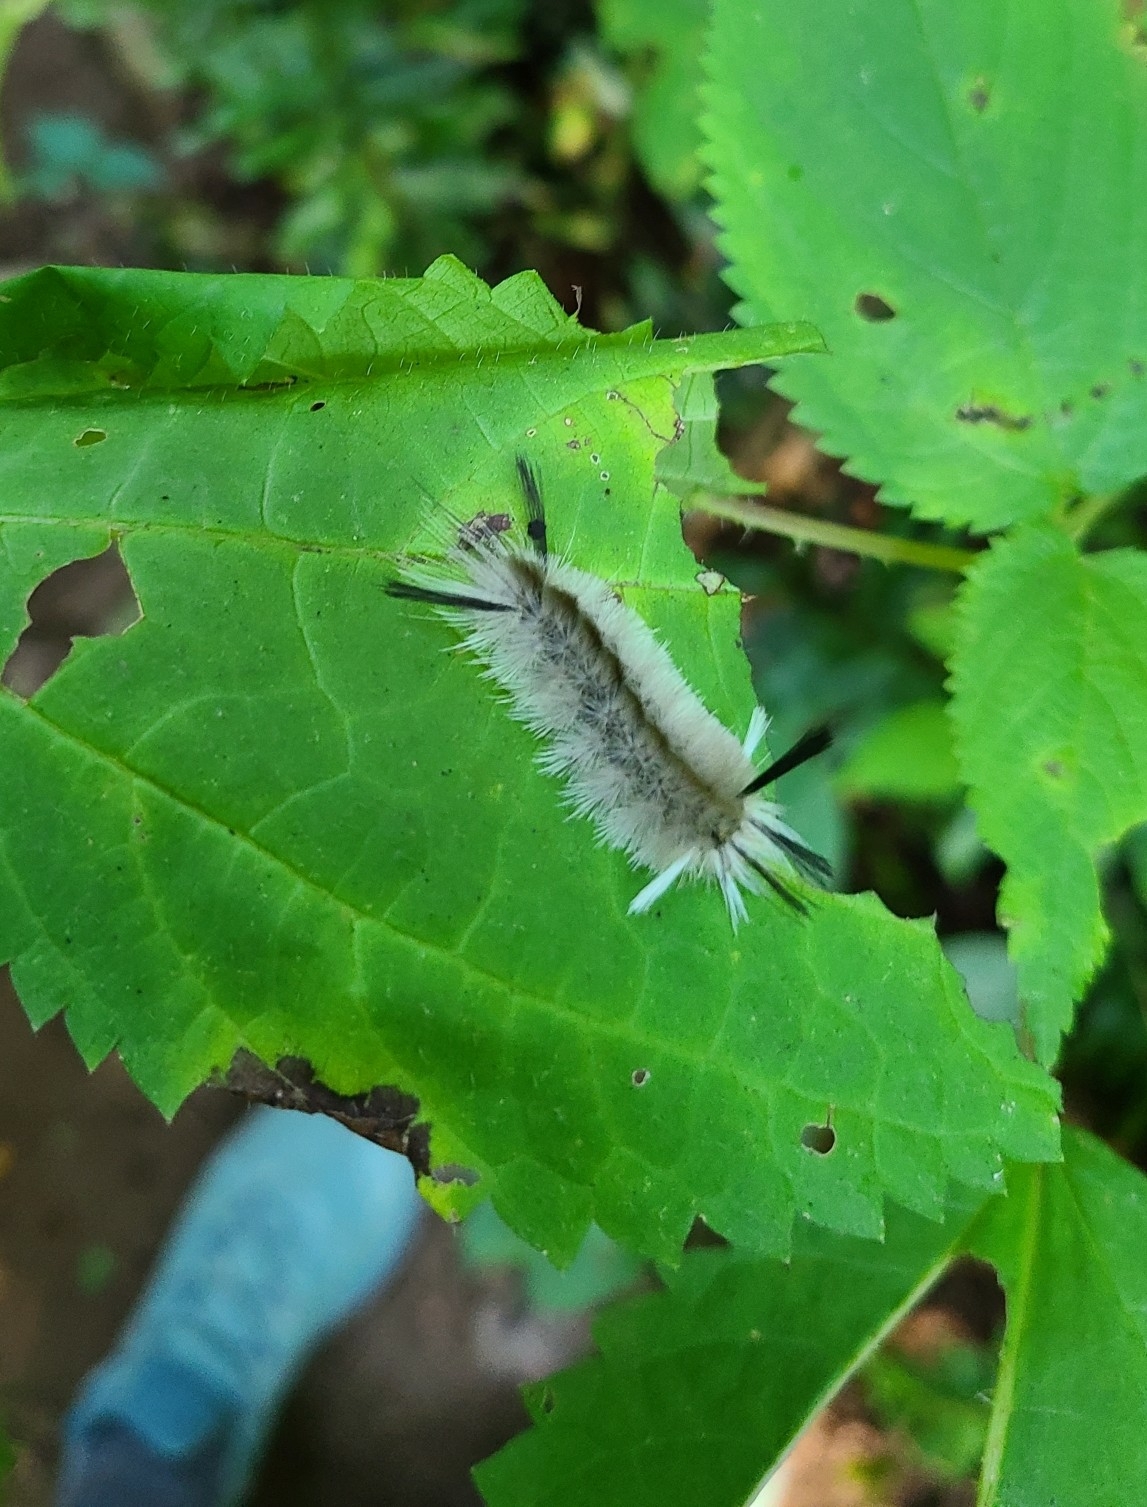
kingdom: Animalia
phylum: Arthropoda
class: Insecta
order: Lepidoptera
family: Erebidae
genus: Halysidota
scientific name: Halysidota tessellaris
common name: Banded tussock moth
